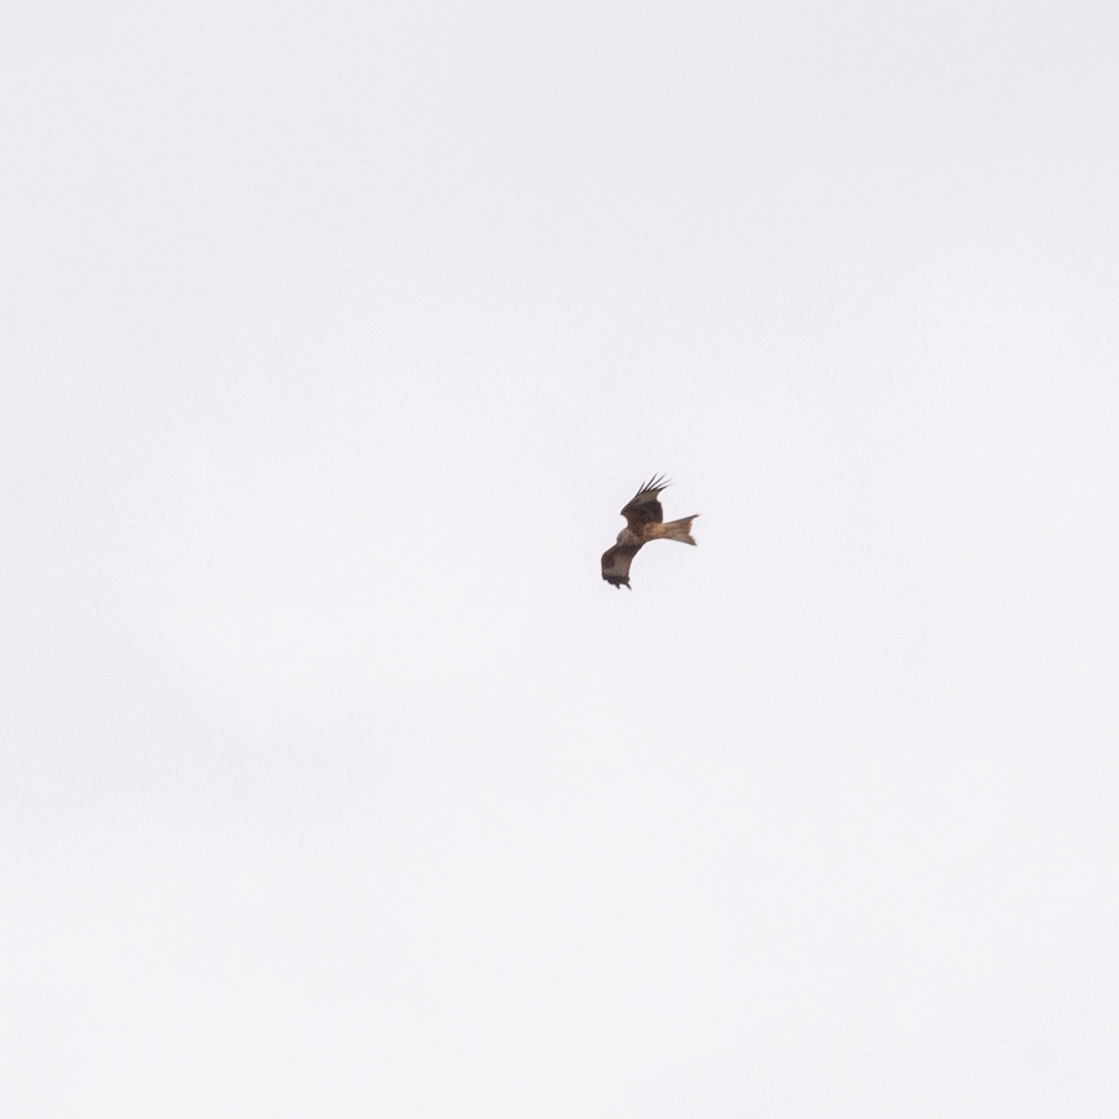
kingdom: Animalia
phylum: Chordata
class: Aves
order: Accipitriformes
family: Accipitridae
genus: Milvus
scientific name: Milvus milvus
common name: Red kite
